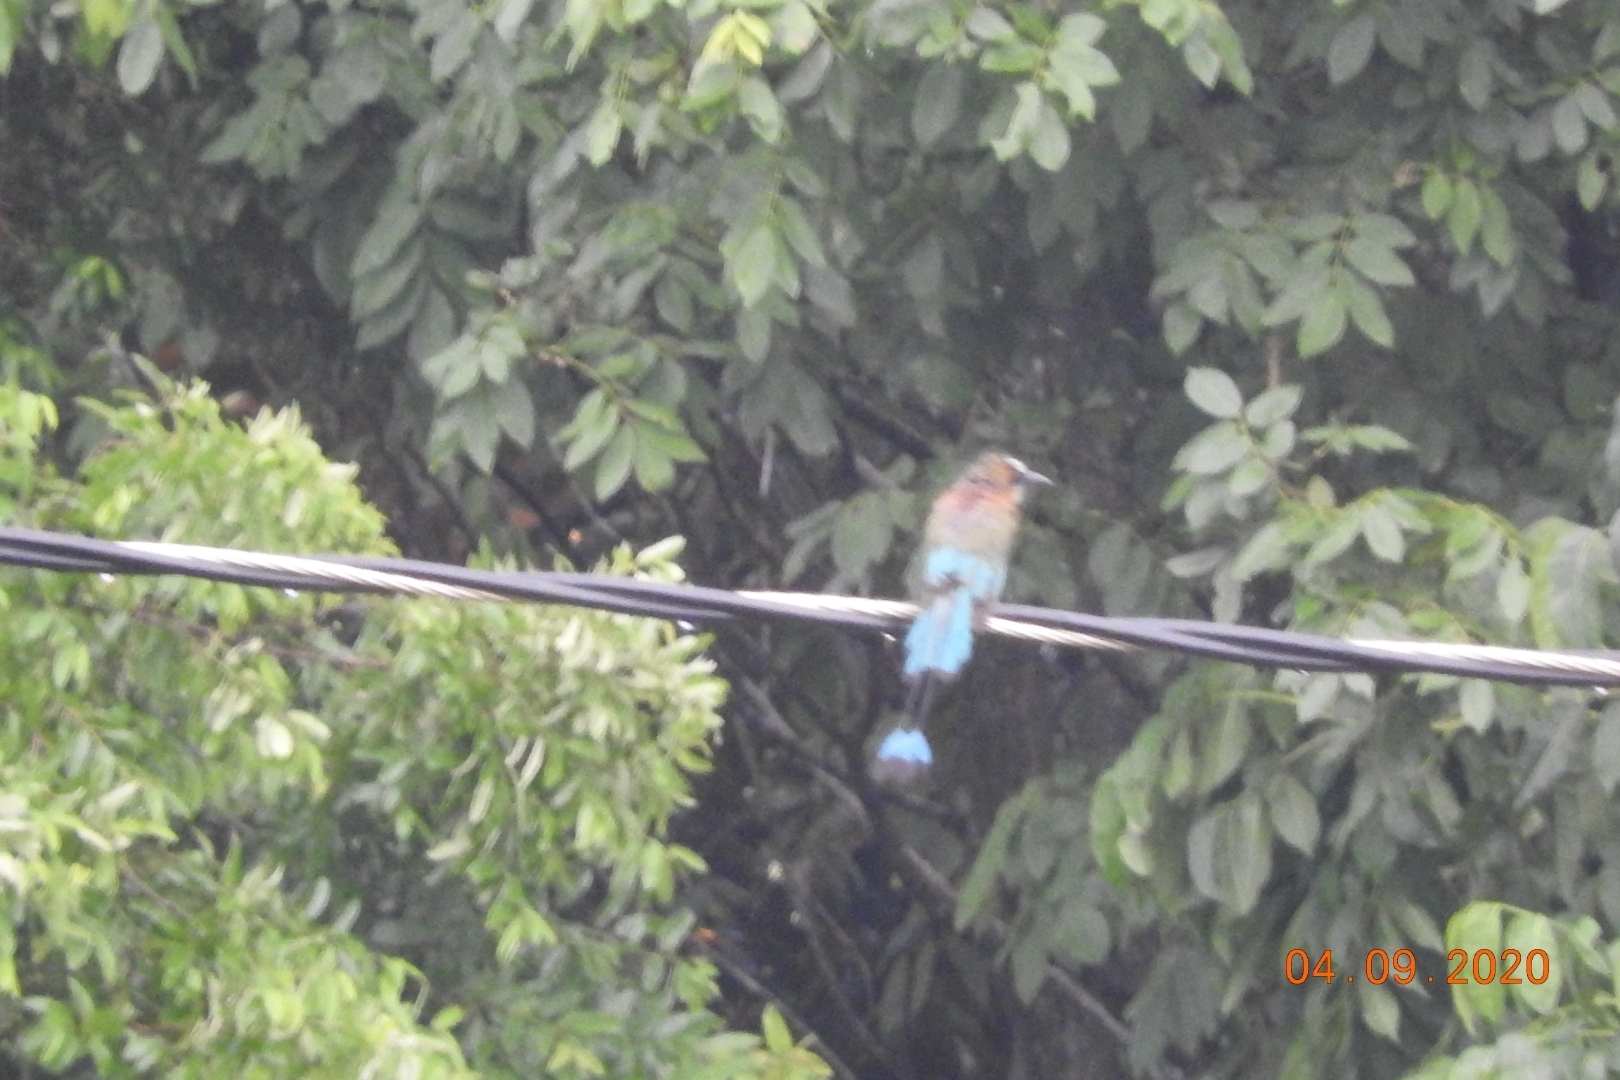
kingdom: Animalia
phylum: Chordata
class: Aves
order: Coraciiformes
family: Momotidae
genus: Eumomota
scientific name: Eumomota superciliosa
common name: Turquoise-browed motmot
